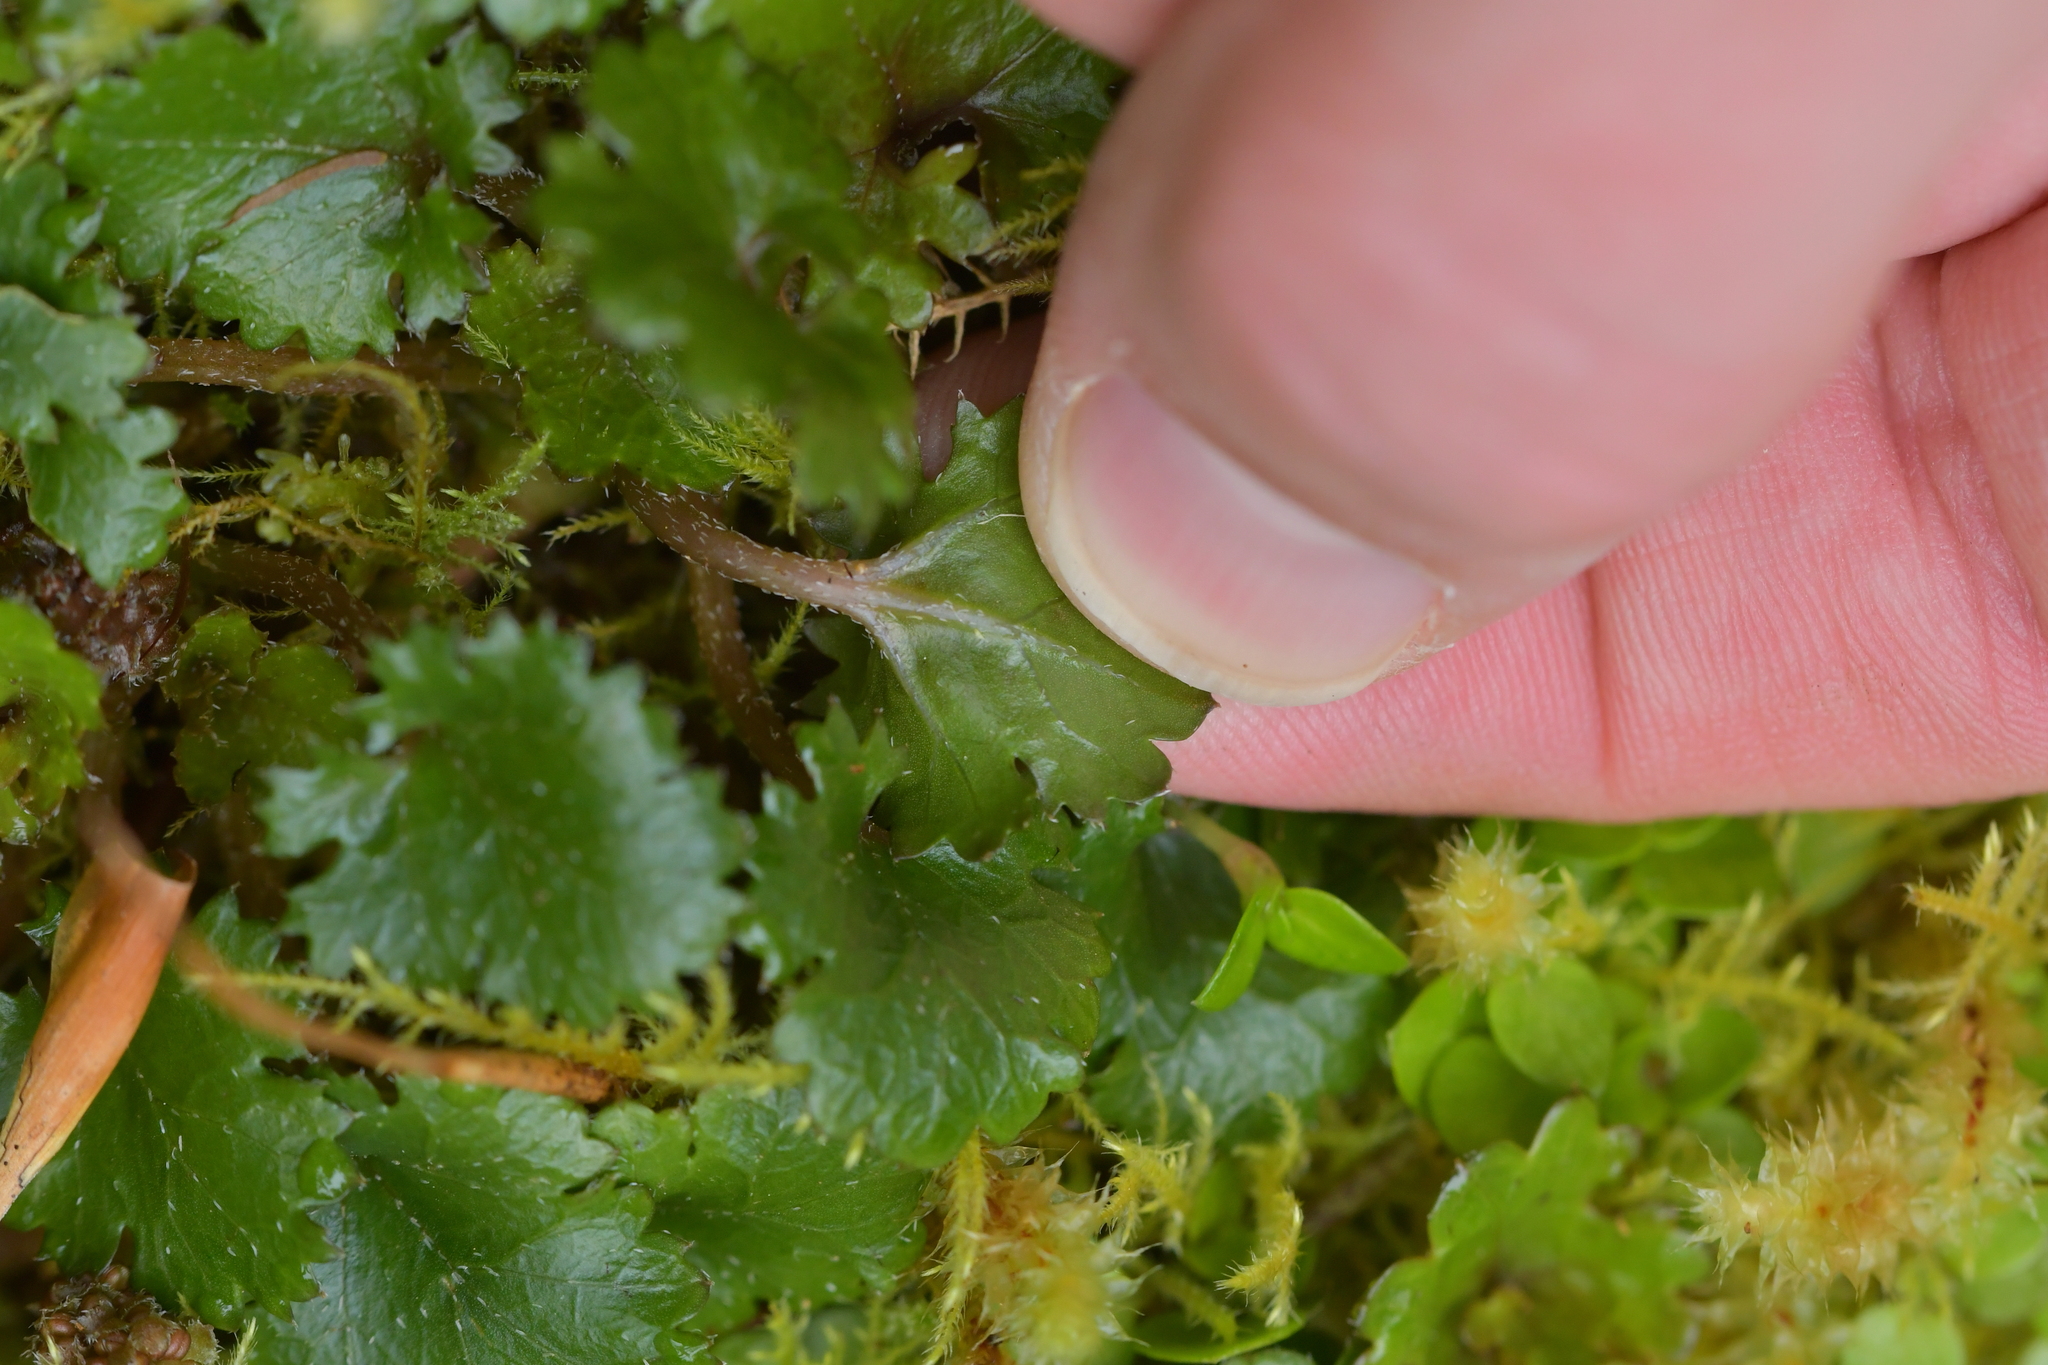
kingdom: Plantae
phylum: Tracheophyta
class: Magnoliopsida
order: Gunnerales
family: Gunneraceae
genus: Gunnera
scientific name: Gunnera monoica
